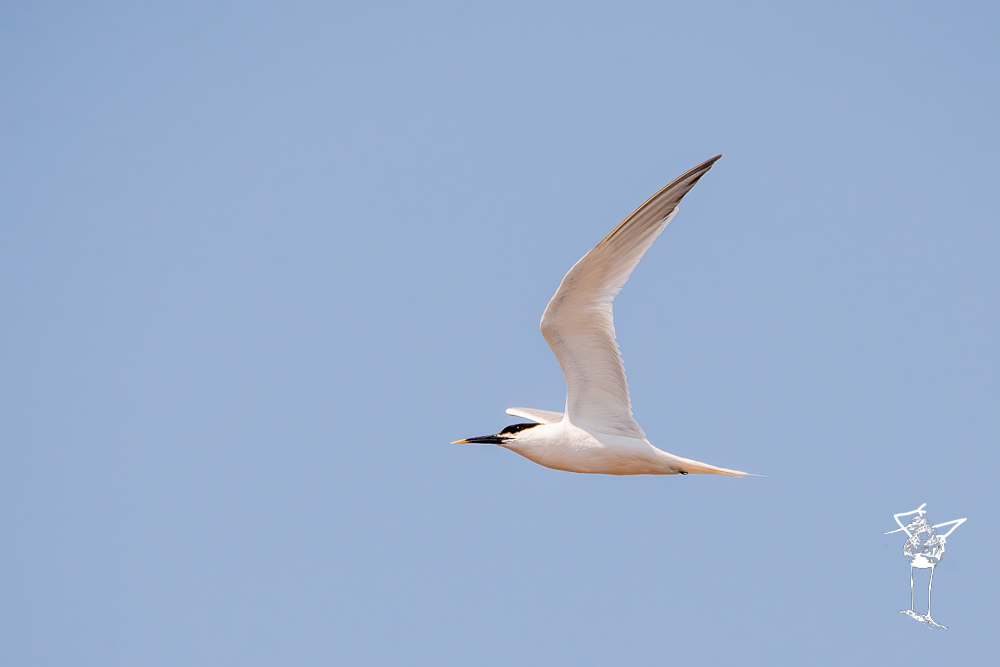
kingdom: Animalia
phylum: Chordata
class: Aves
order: Charadriiformes
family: Laridae
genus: Thalasseus
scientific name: Thalasseus sandvicensis
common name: Sandwich tern
